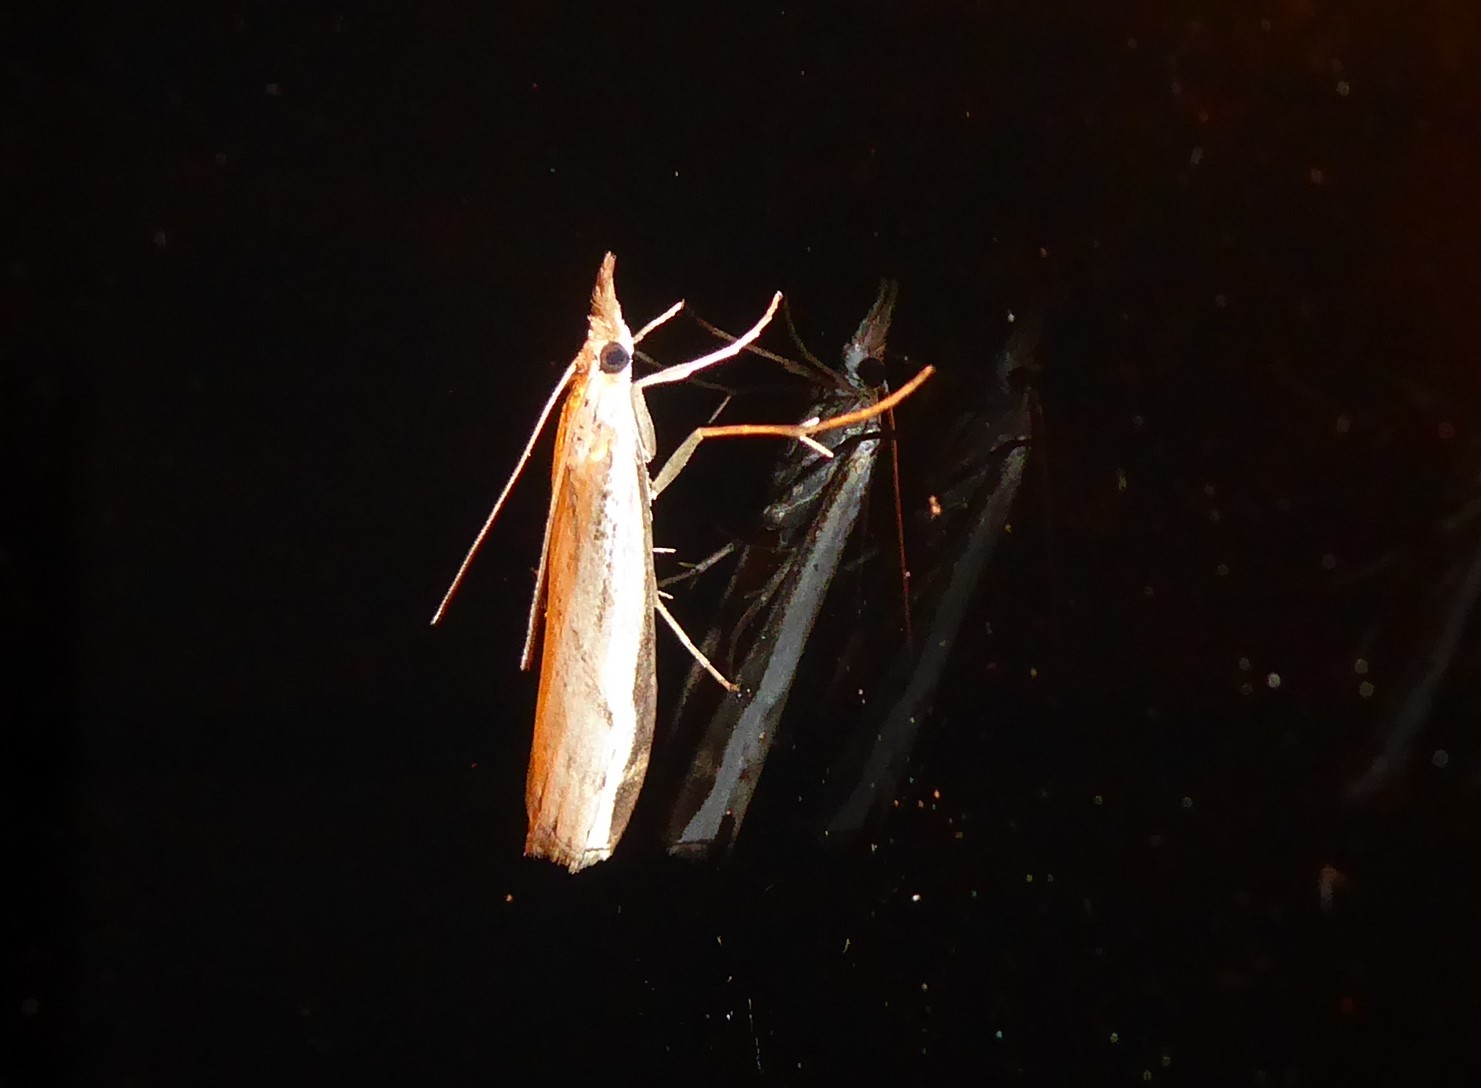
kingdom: Animalia
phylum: Arthropoda
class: Insecta
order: Lepidoptera
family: Crambidae
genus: Orocrambus
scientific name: Orocrambus flexuosellus
